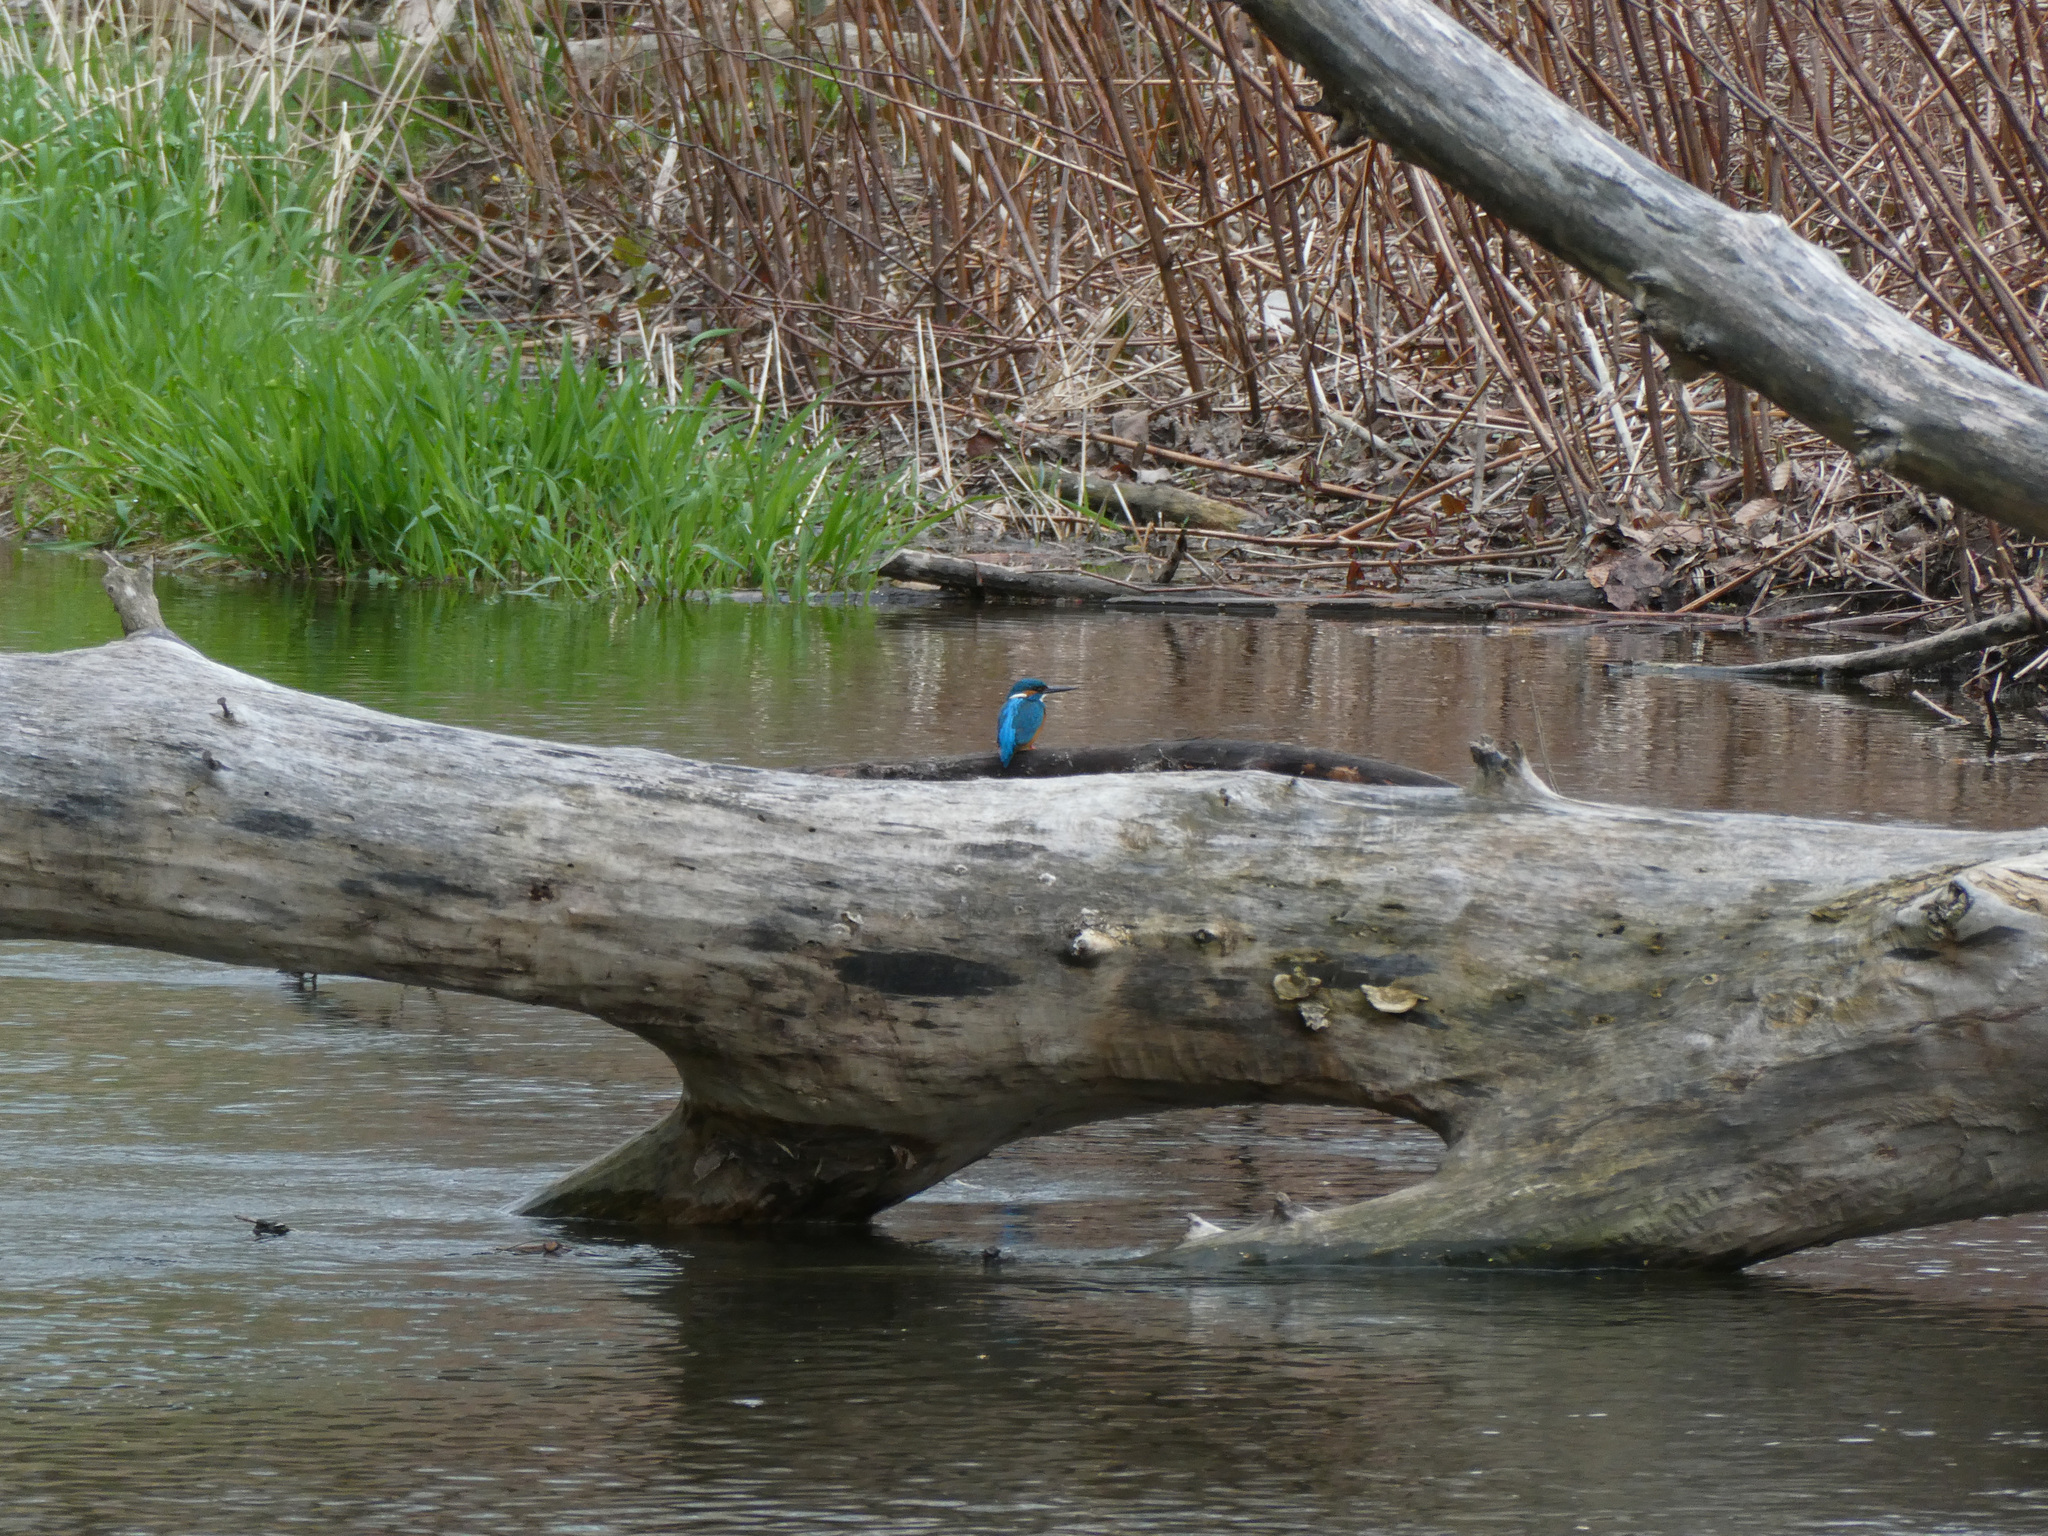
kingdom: Animalia
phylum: Chordata
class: Aves
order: Coraciiformes
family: Alcedinidae
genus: Alcedo
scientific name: Alcedo atthis
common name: Common kingfisher
